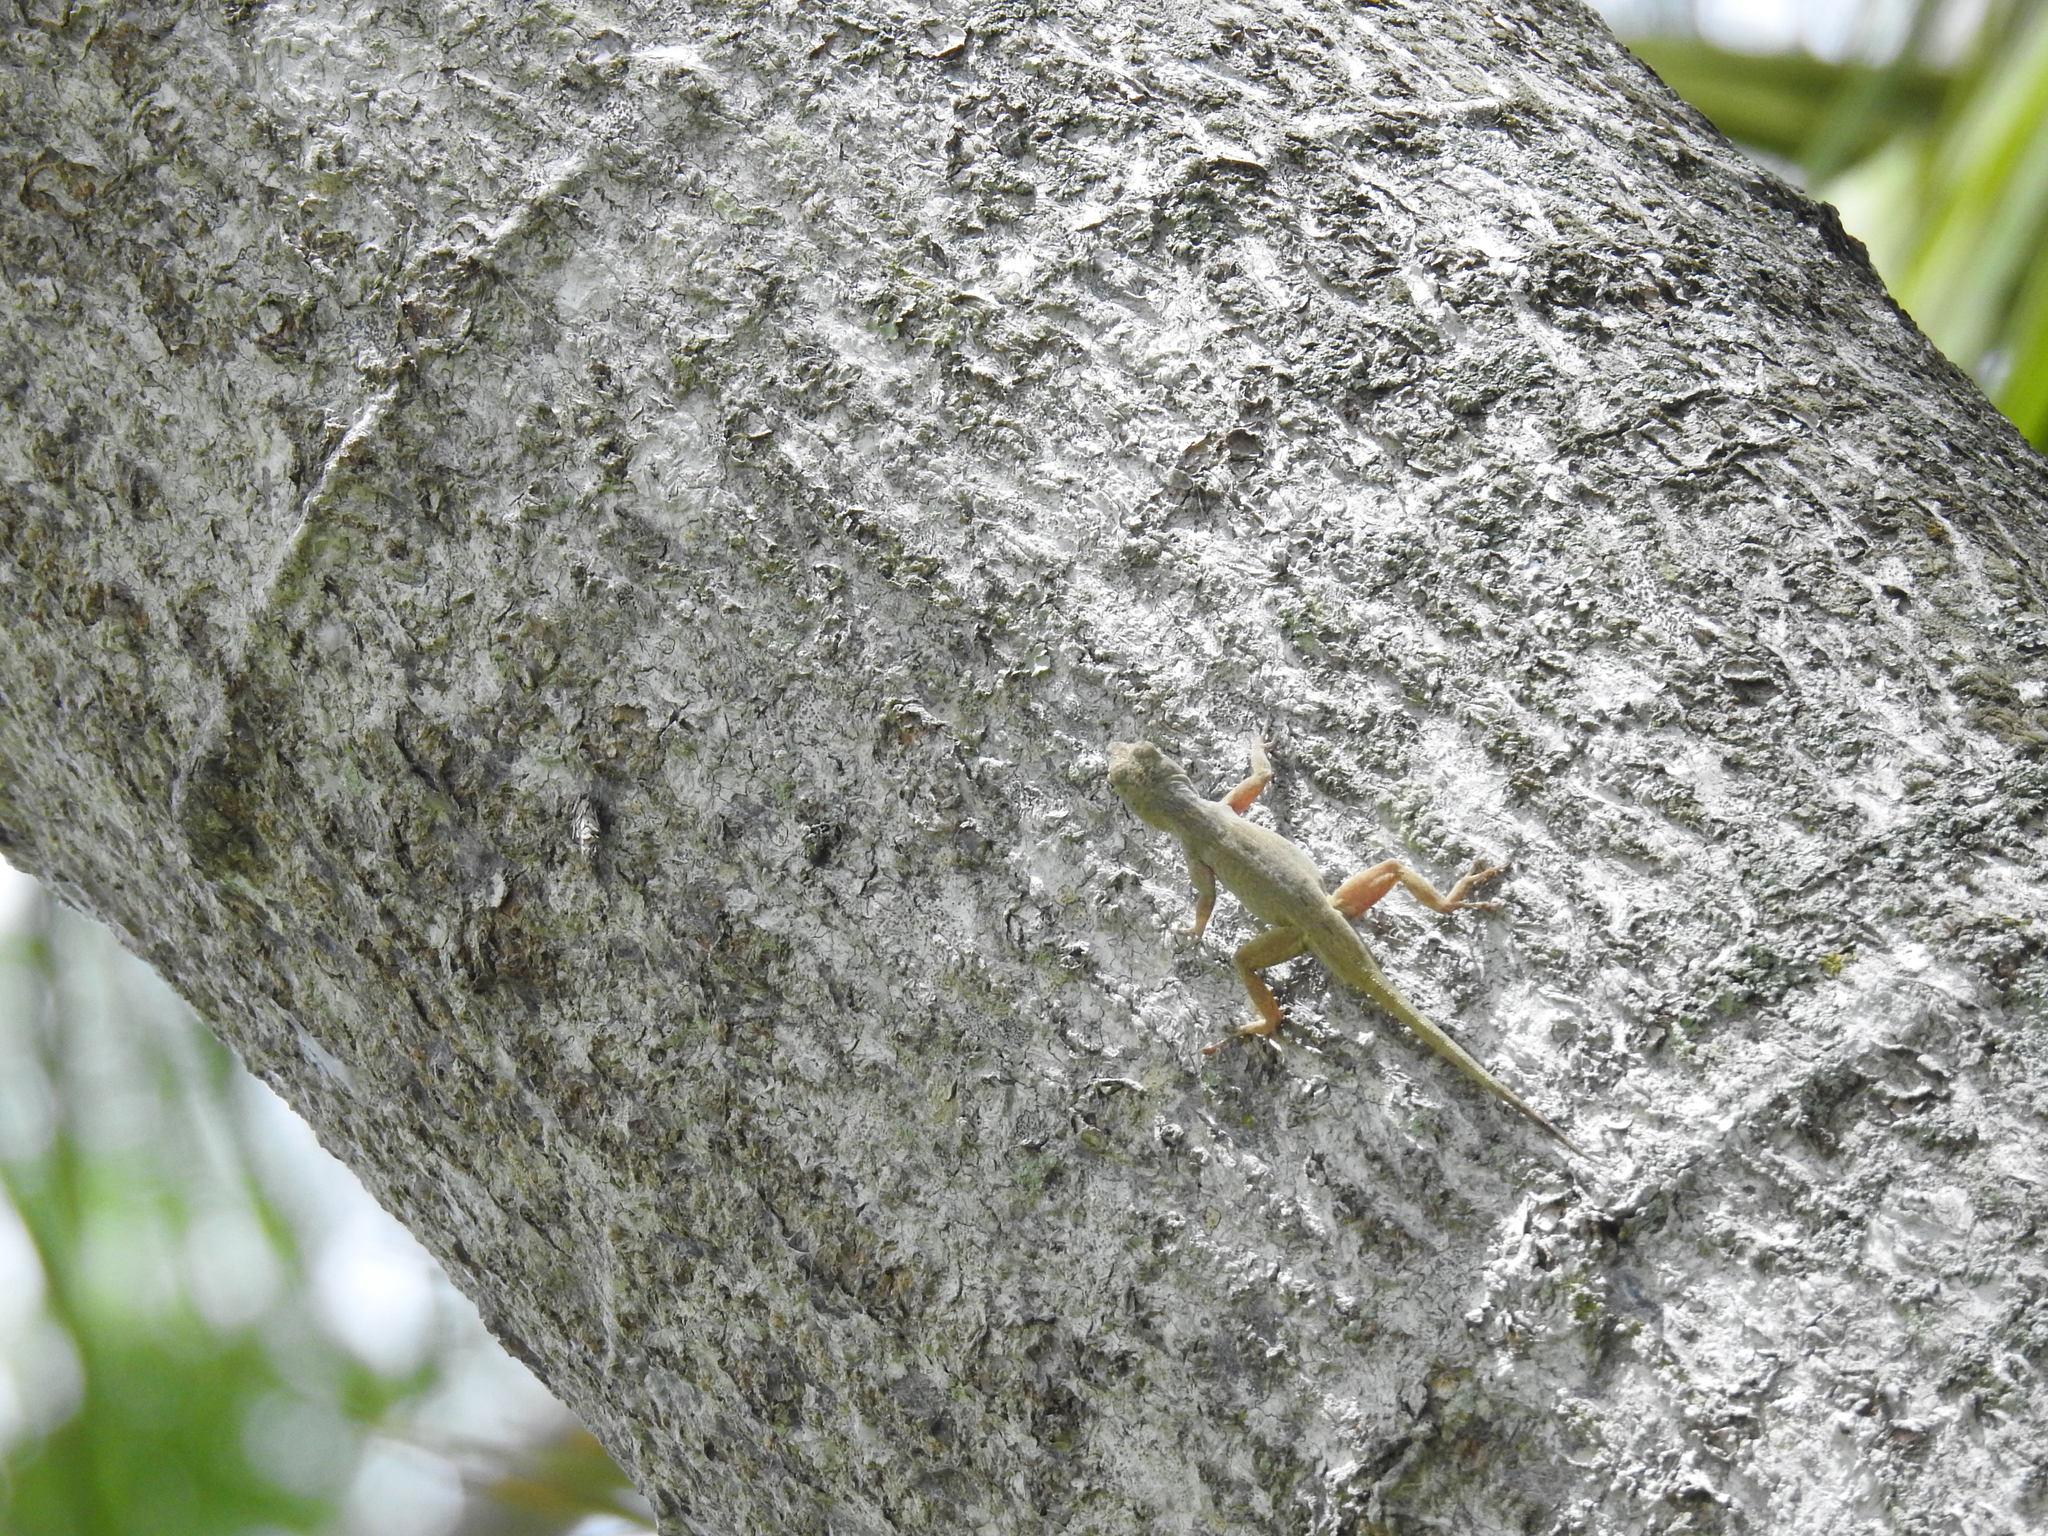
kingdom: Animalia
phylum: Chordata
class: Squamata
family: Dactyloidae
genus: Anolis
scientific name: Anolis distichus
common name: Bark anole
